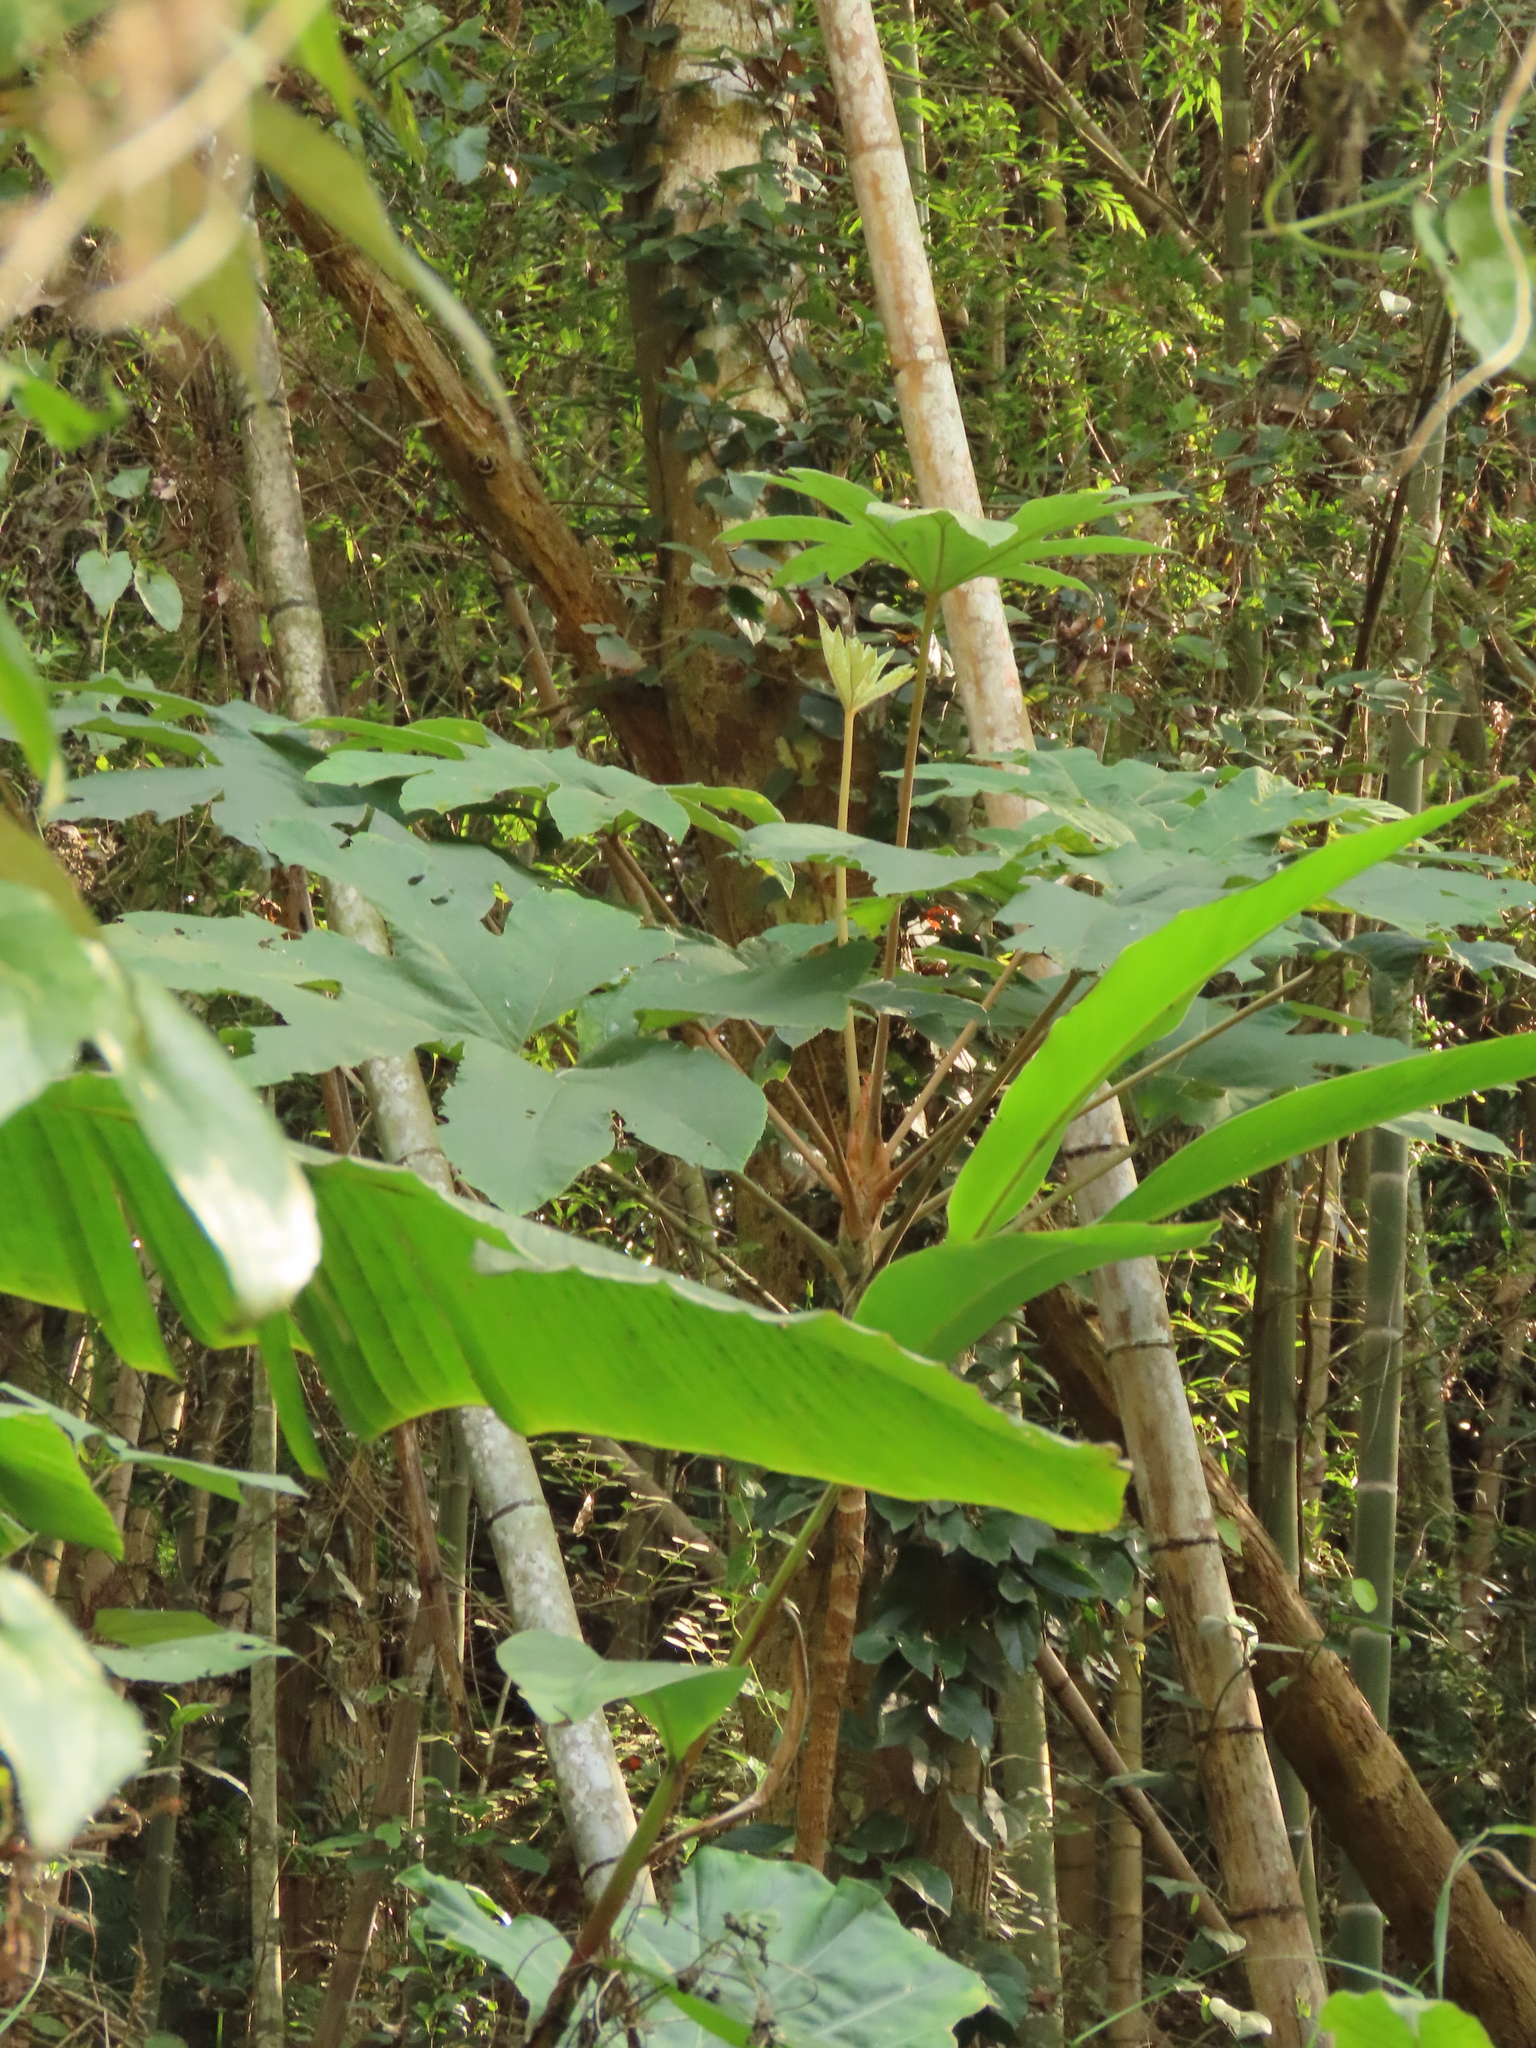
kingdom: Plantae
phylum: Tracheophyta
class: Magnoliopsida
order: Apiales
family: Araliaceae
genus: Tetrapanax
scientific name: Tetrapanax papyrifer
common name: Rice-paper plant
